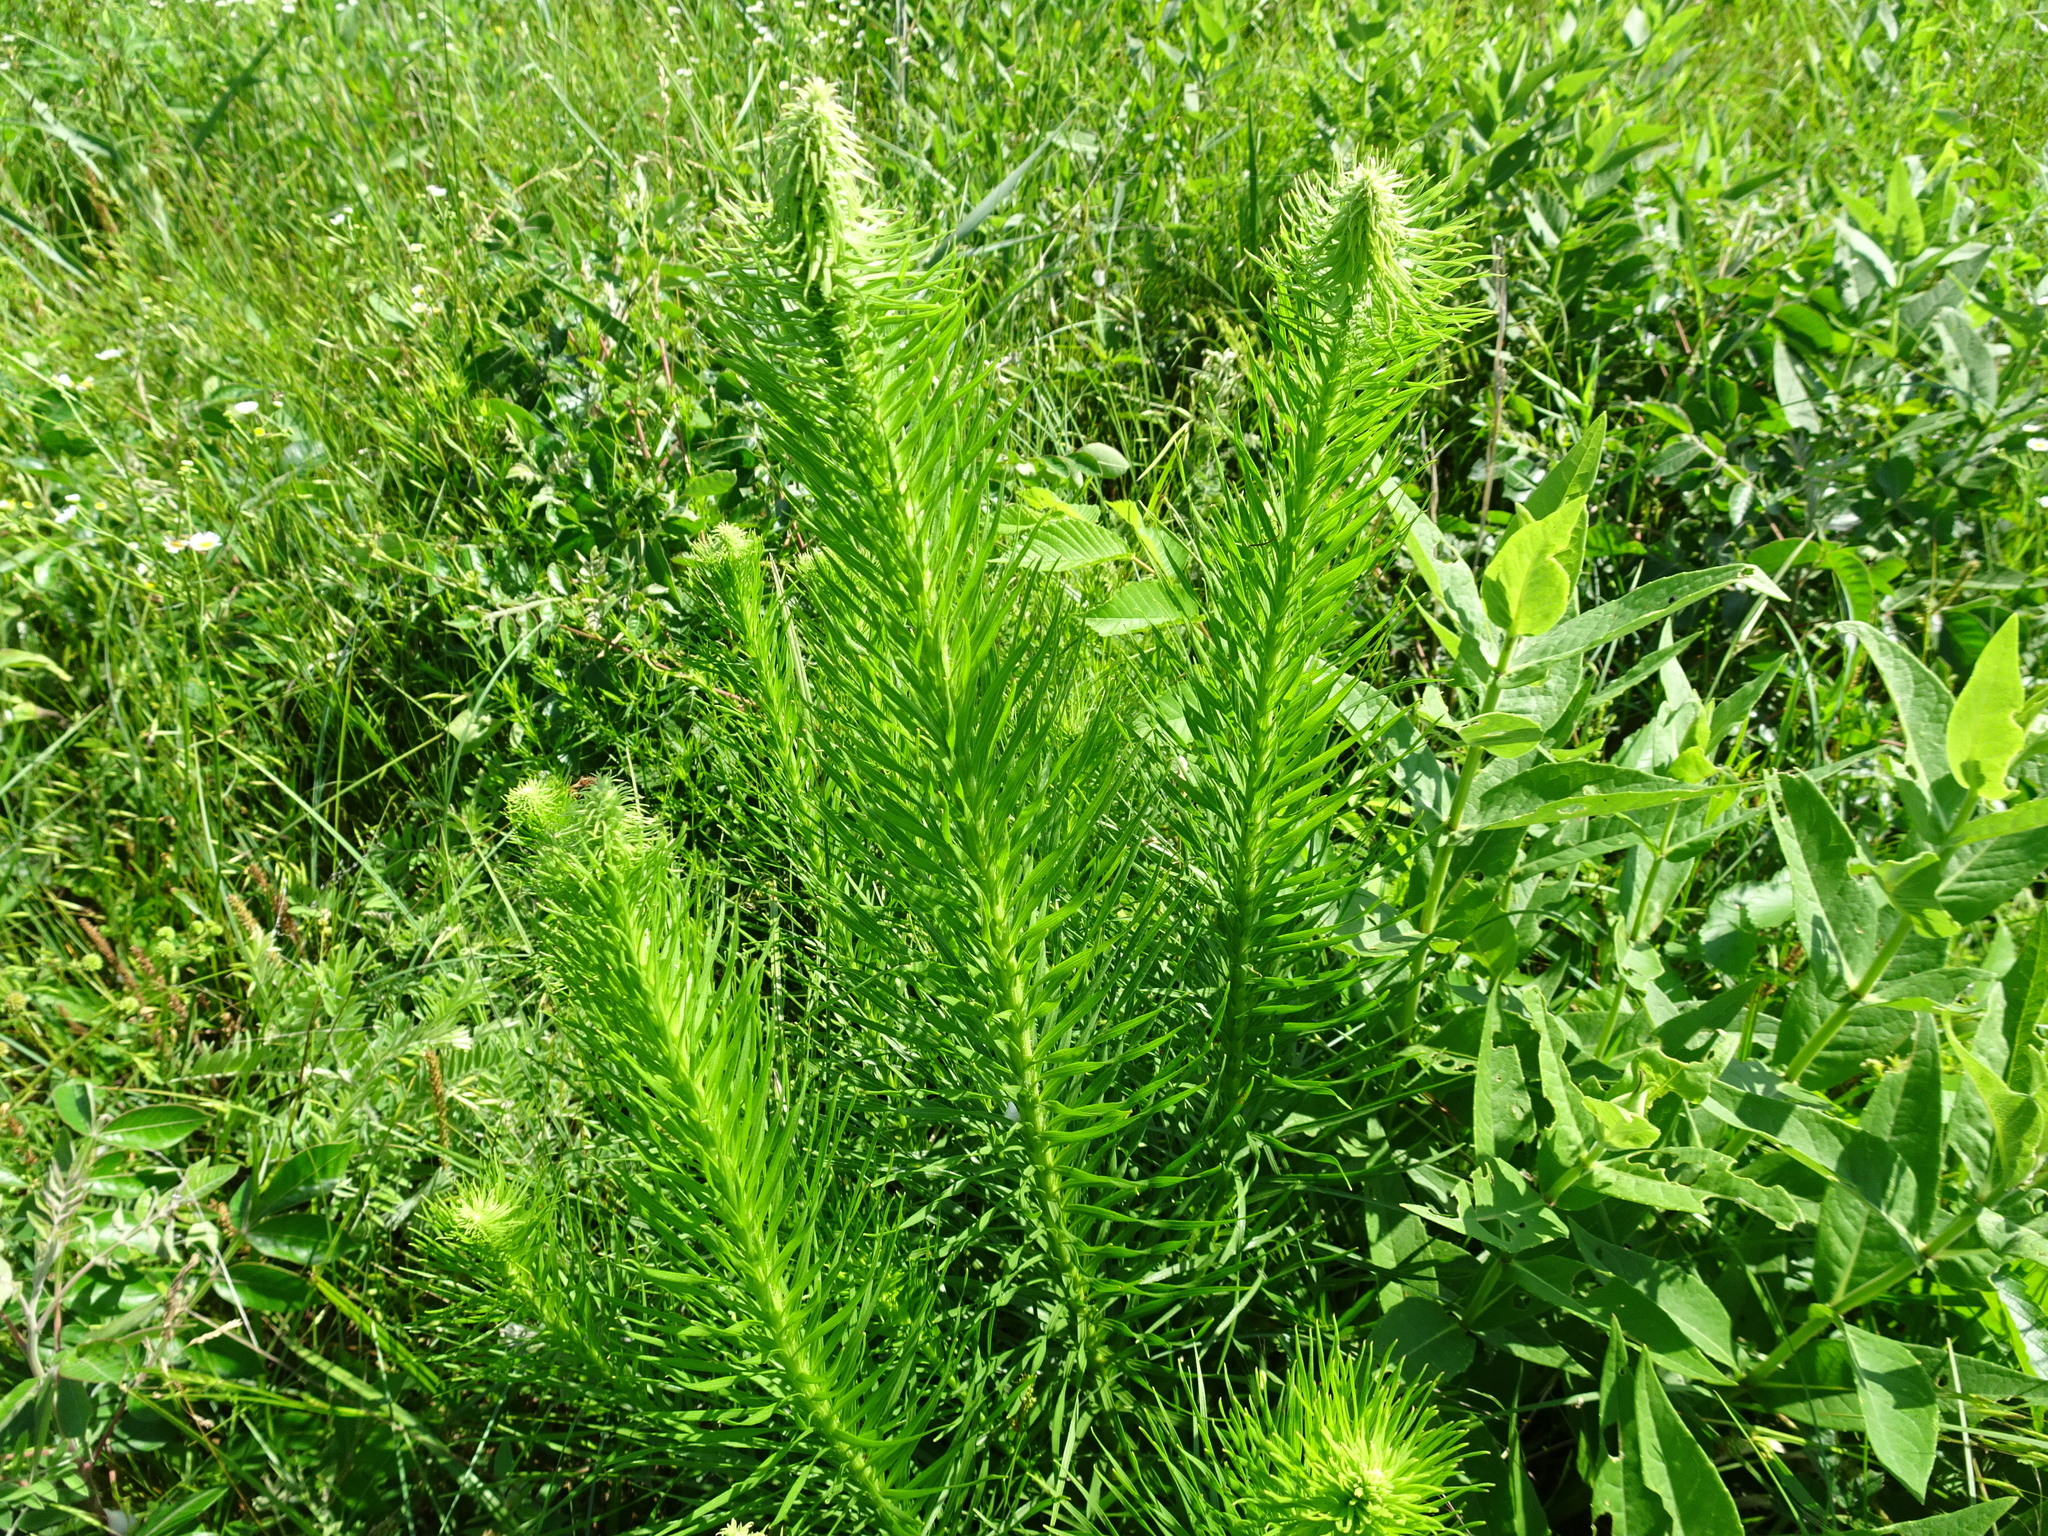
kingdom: Plantae
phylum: Tracheophyta
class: Magnoliopsida
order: Asterales
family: Asteraceae
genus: Liatris
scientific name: Liatris pycnostachya
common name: Cattail gayfeather
